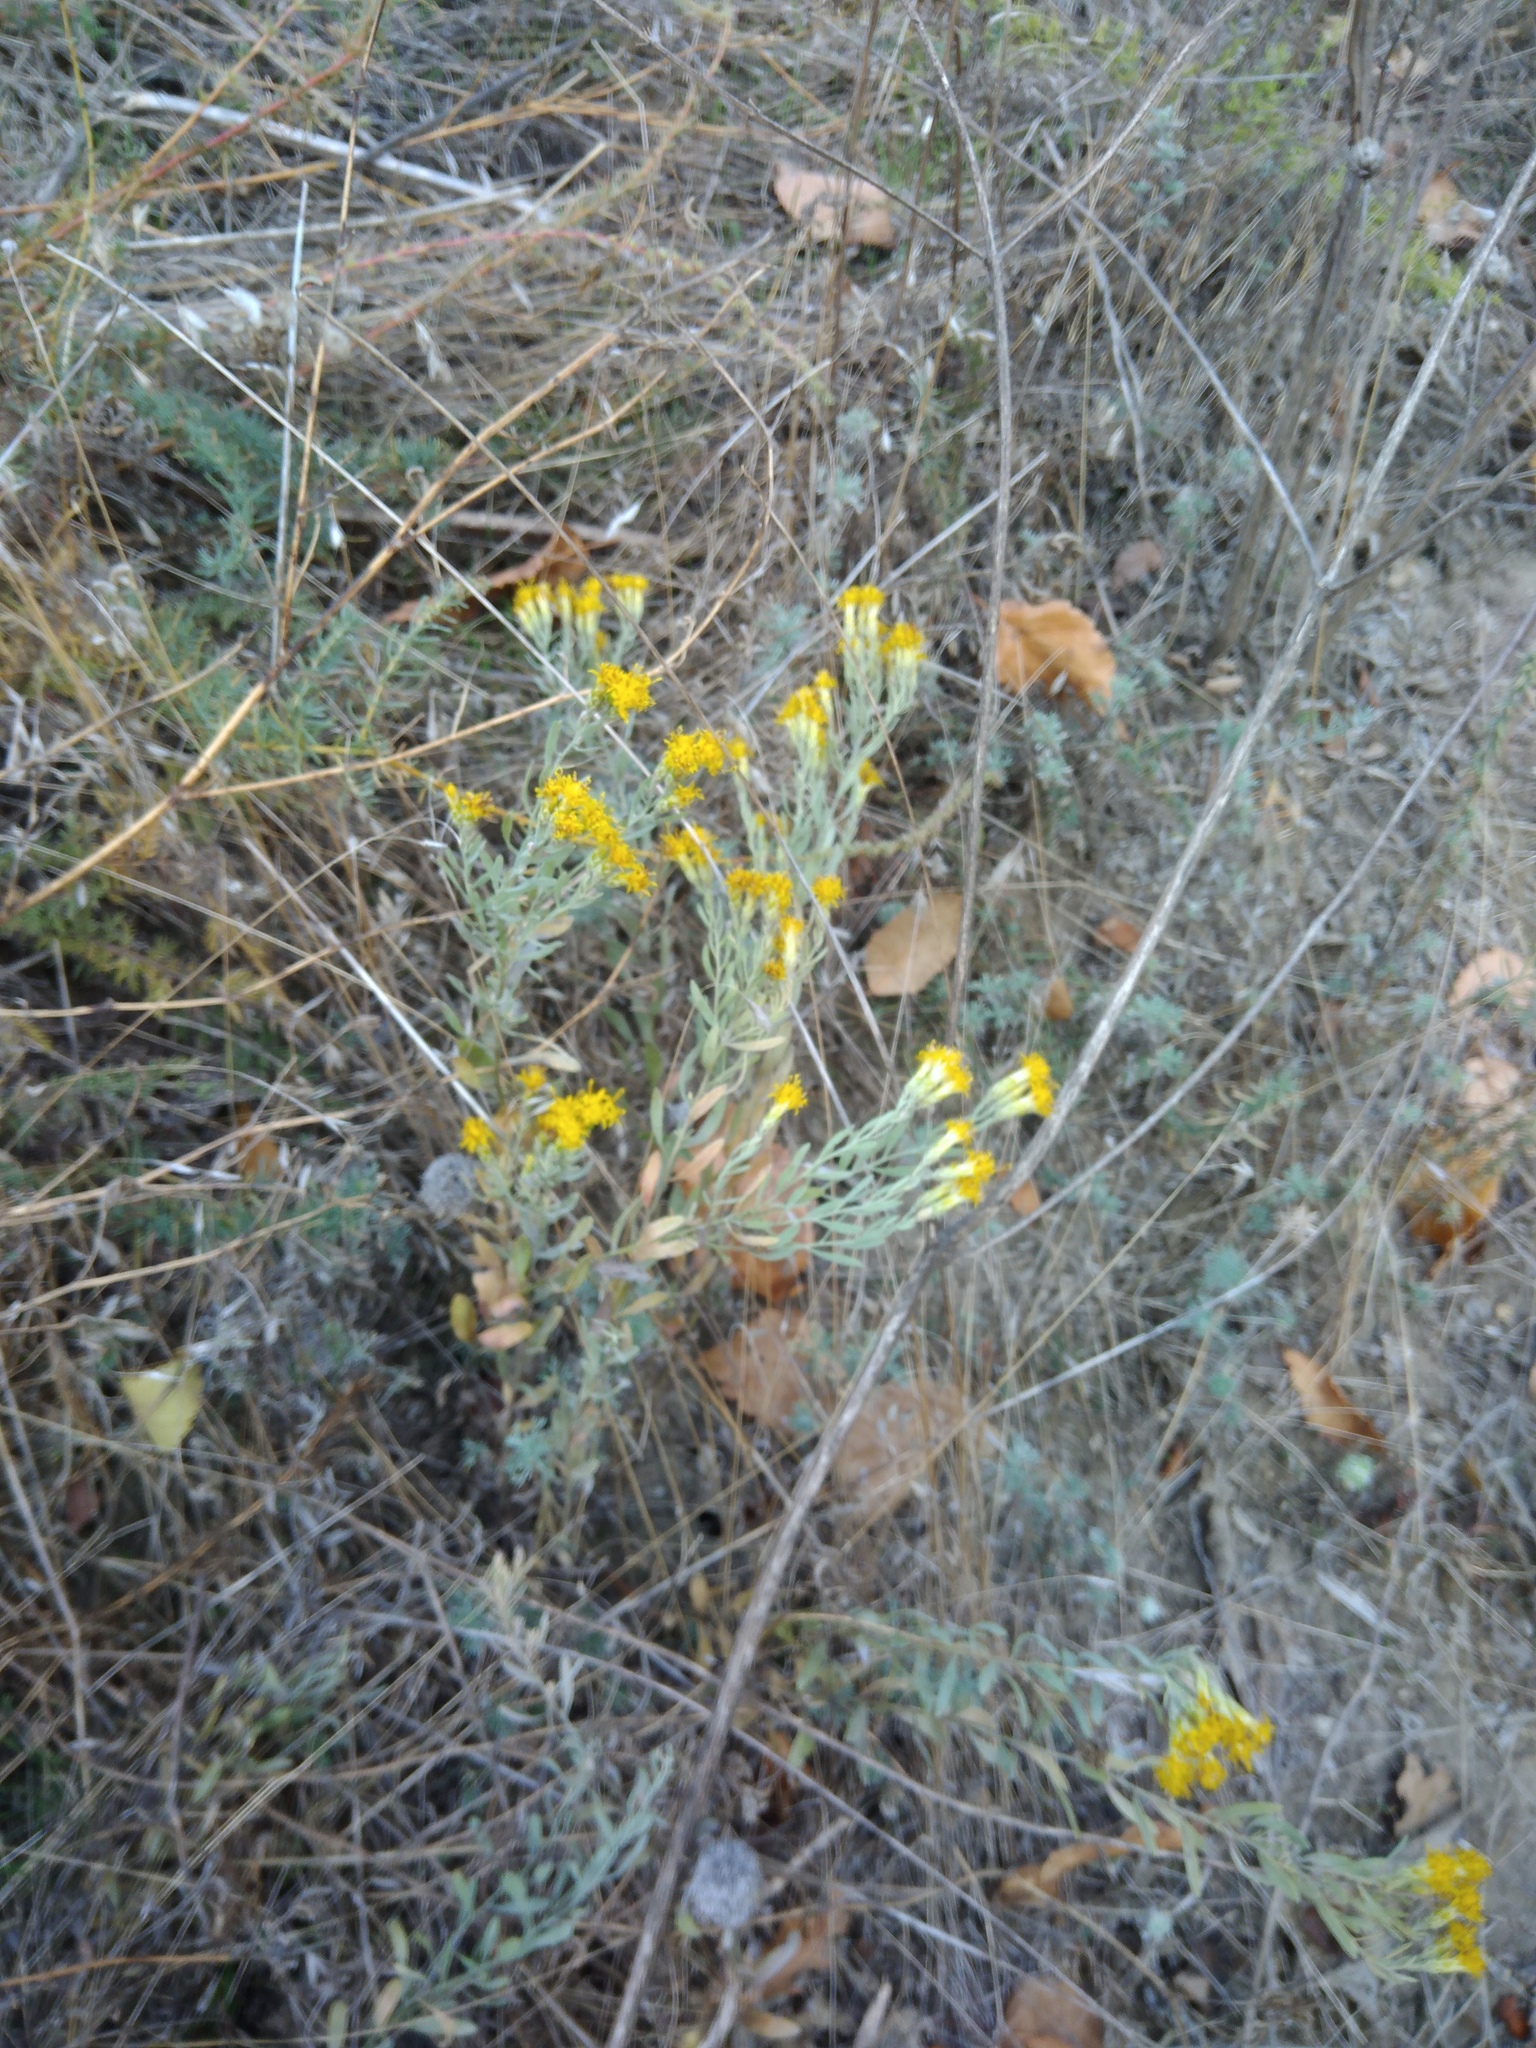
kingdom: Plantae
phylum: Tracheophyta
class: Magnoliopsida
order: Asterales
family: Asteraceae
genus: Galatella
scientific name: Galatella villosa
